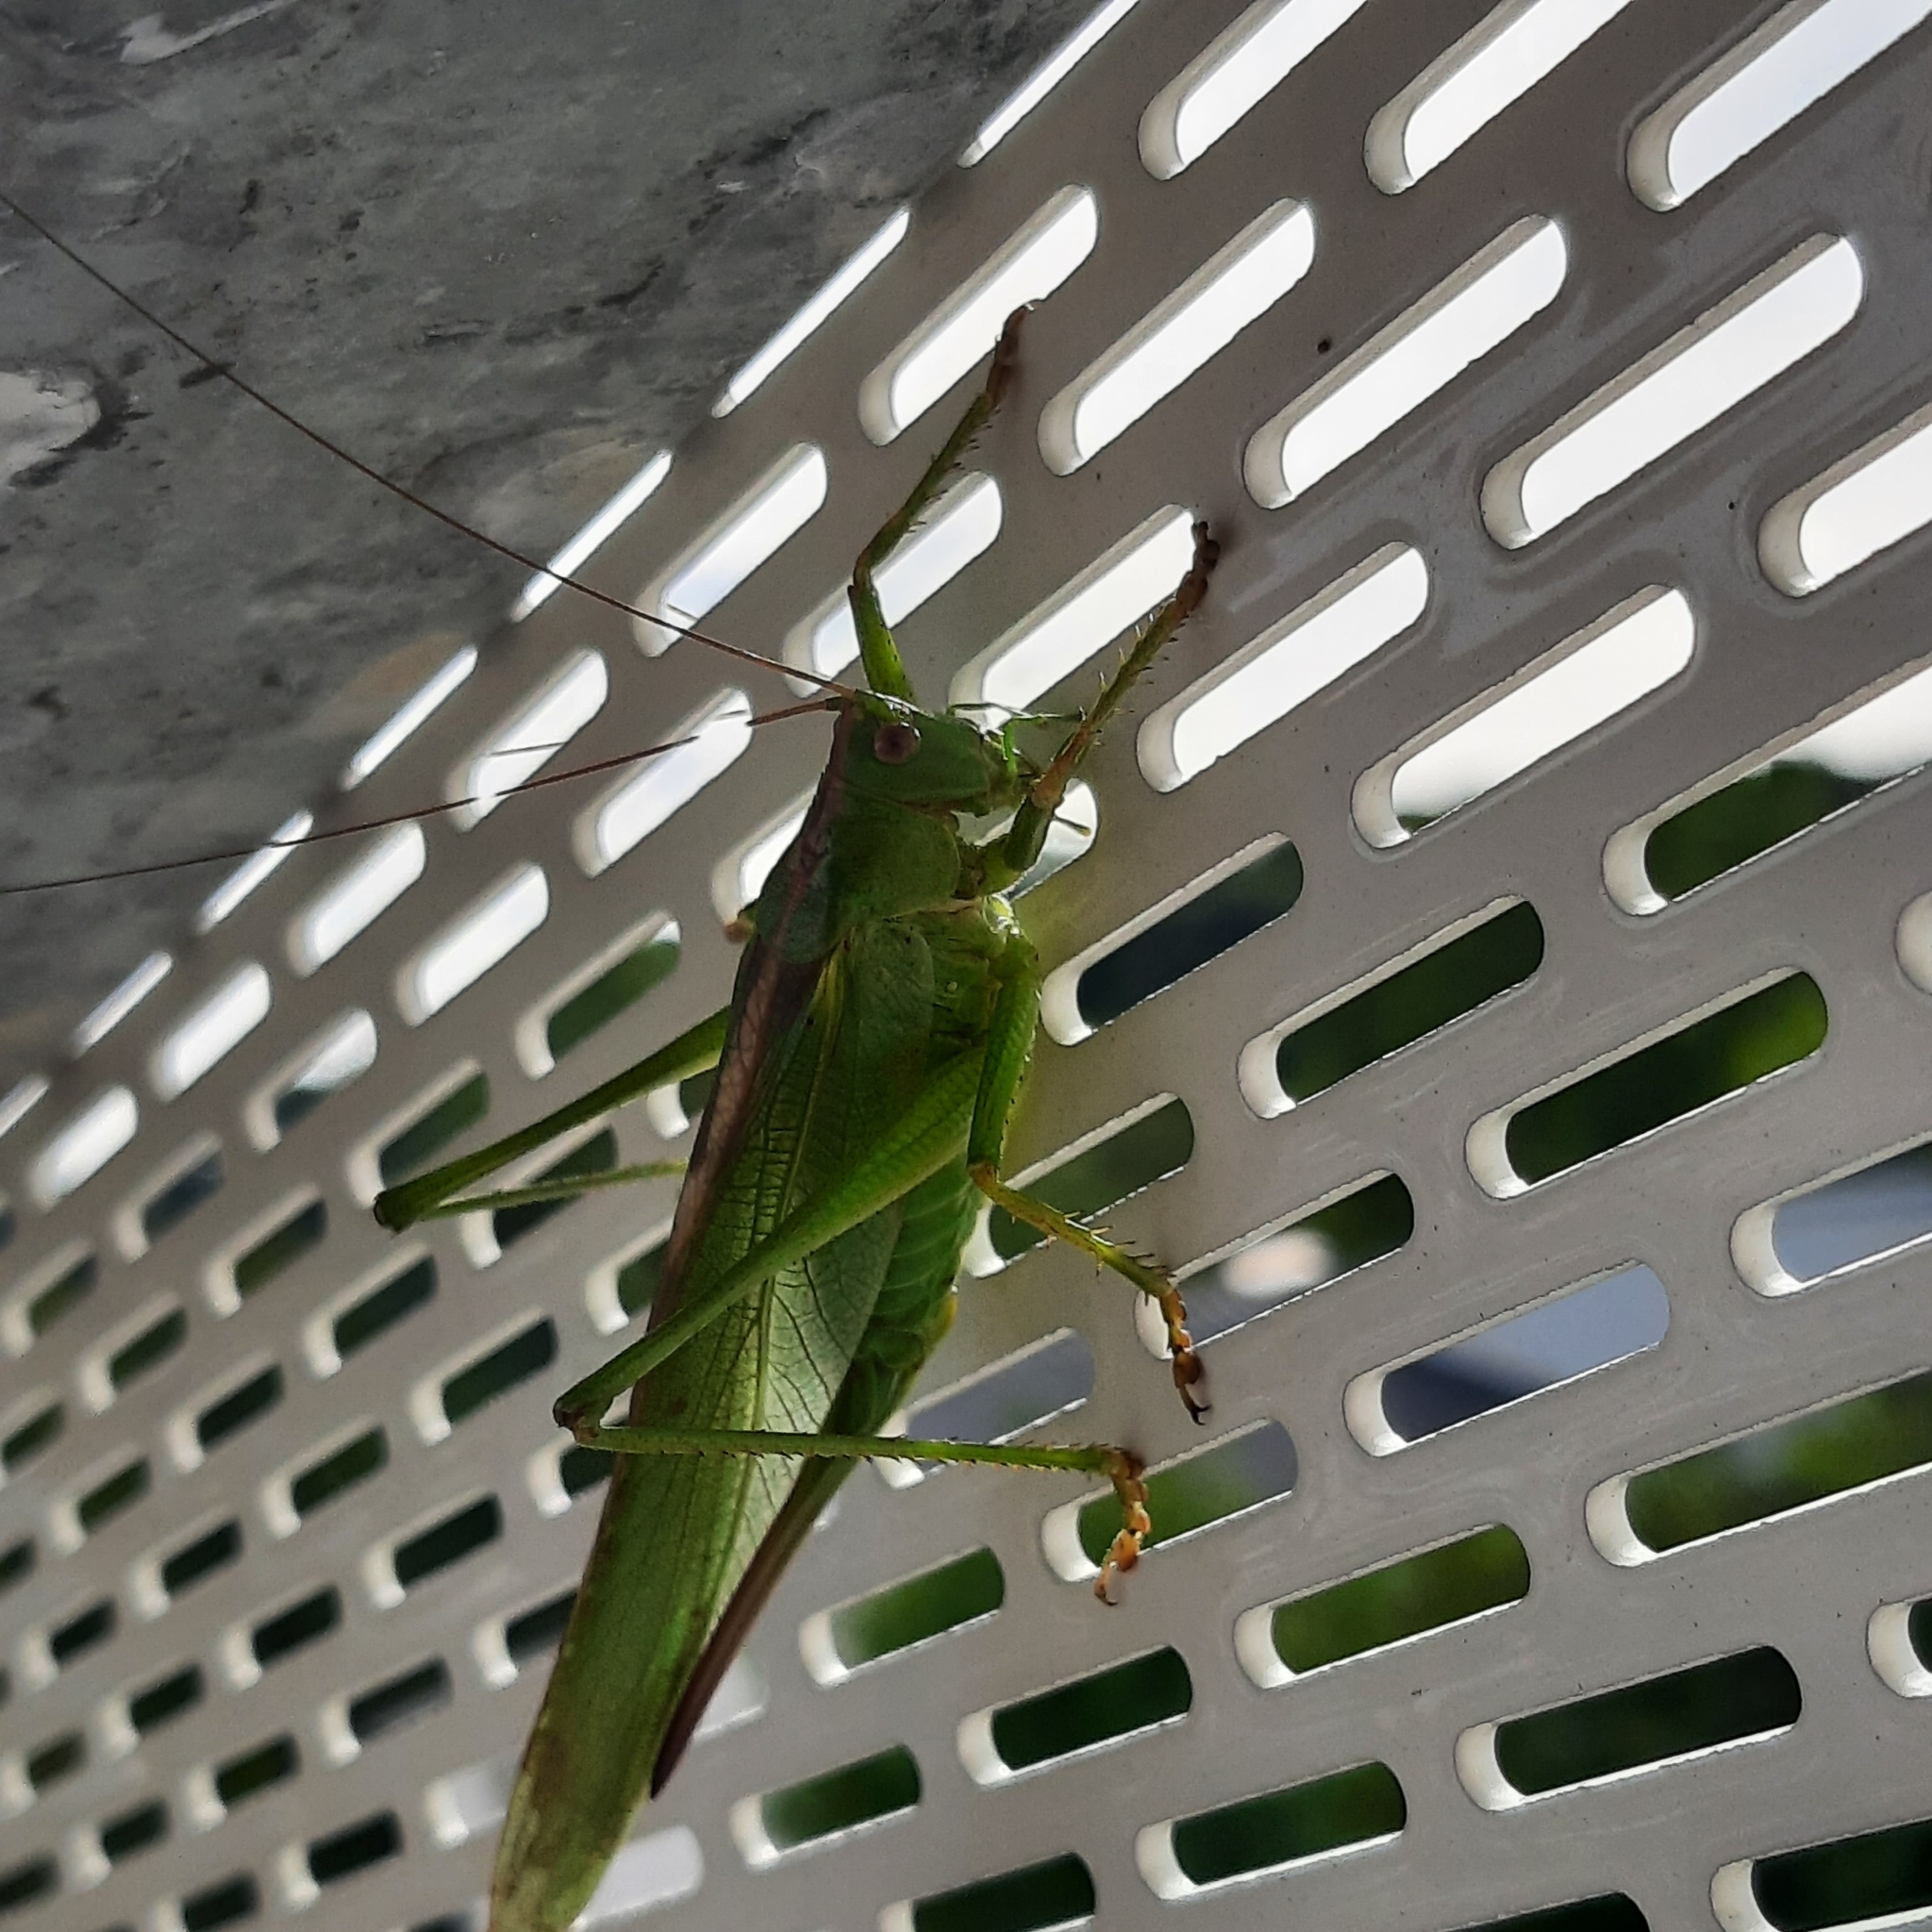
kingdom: Animalia
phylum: Arthropoda
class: Insecta
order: Orthoptera
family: Tettigoniidae
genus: Tettigonia
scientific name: Tettigonia viridissima
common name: Great green bush-cricket
